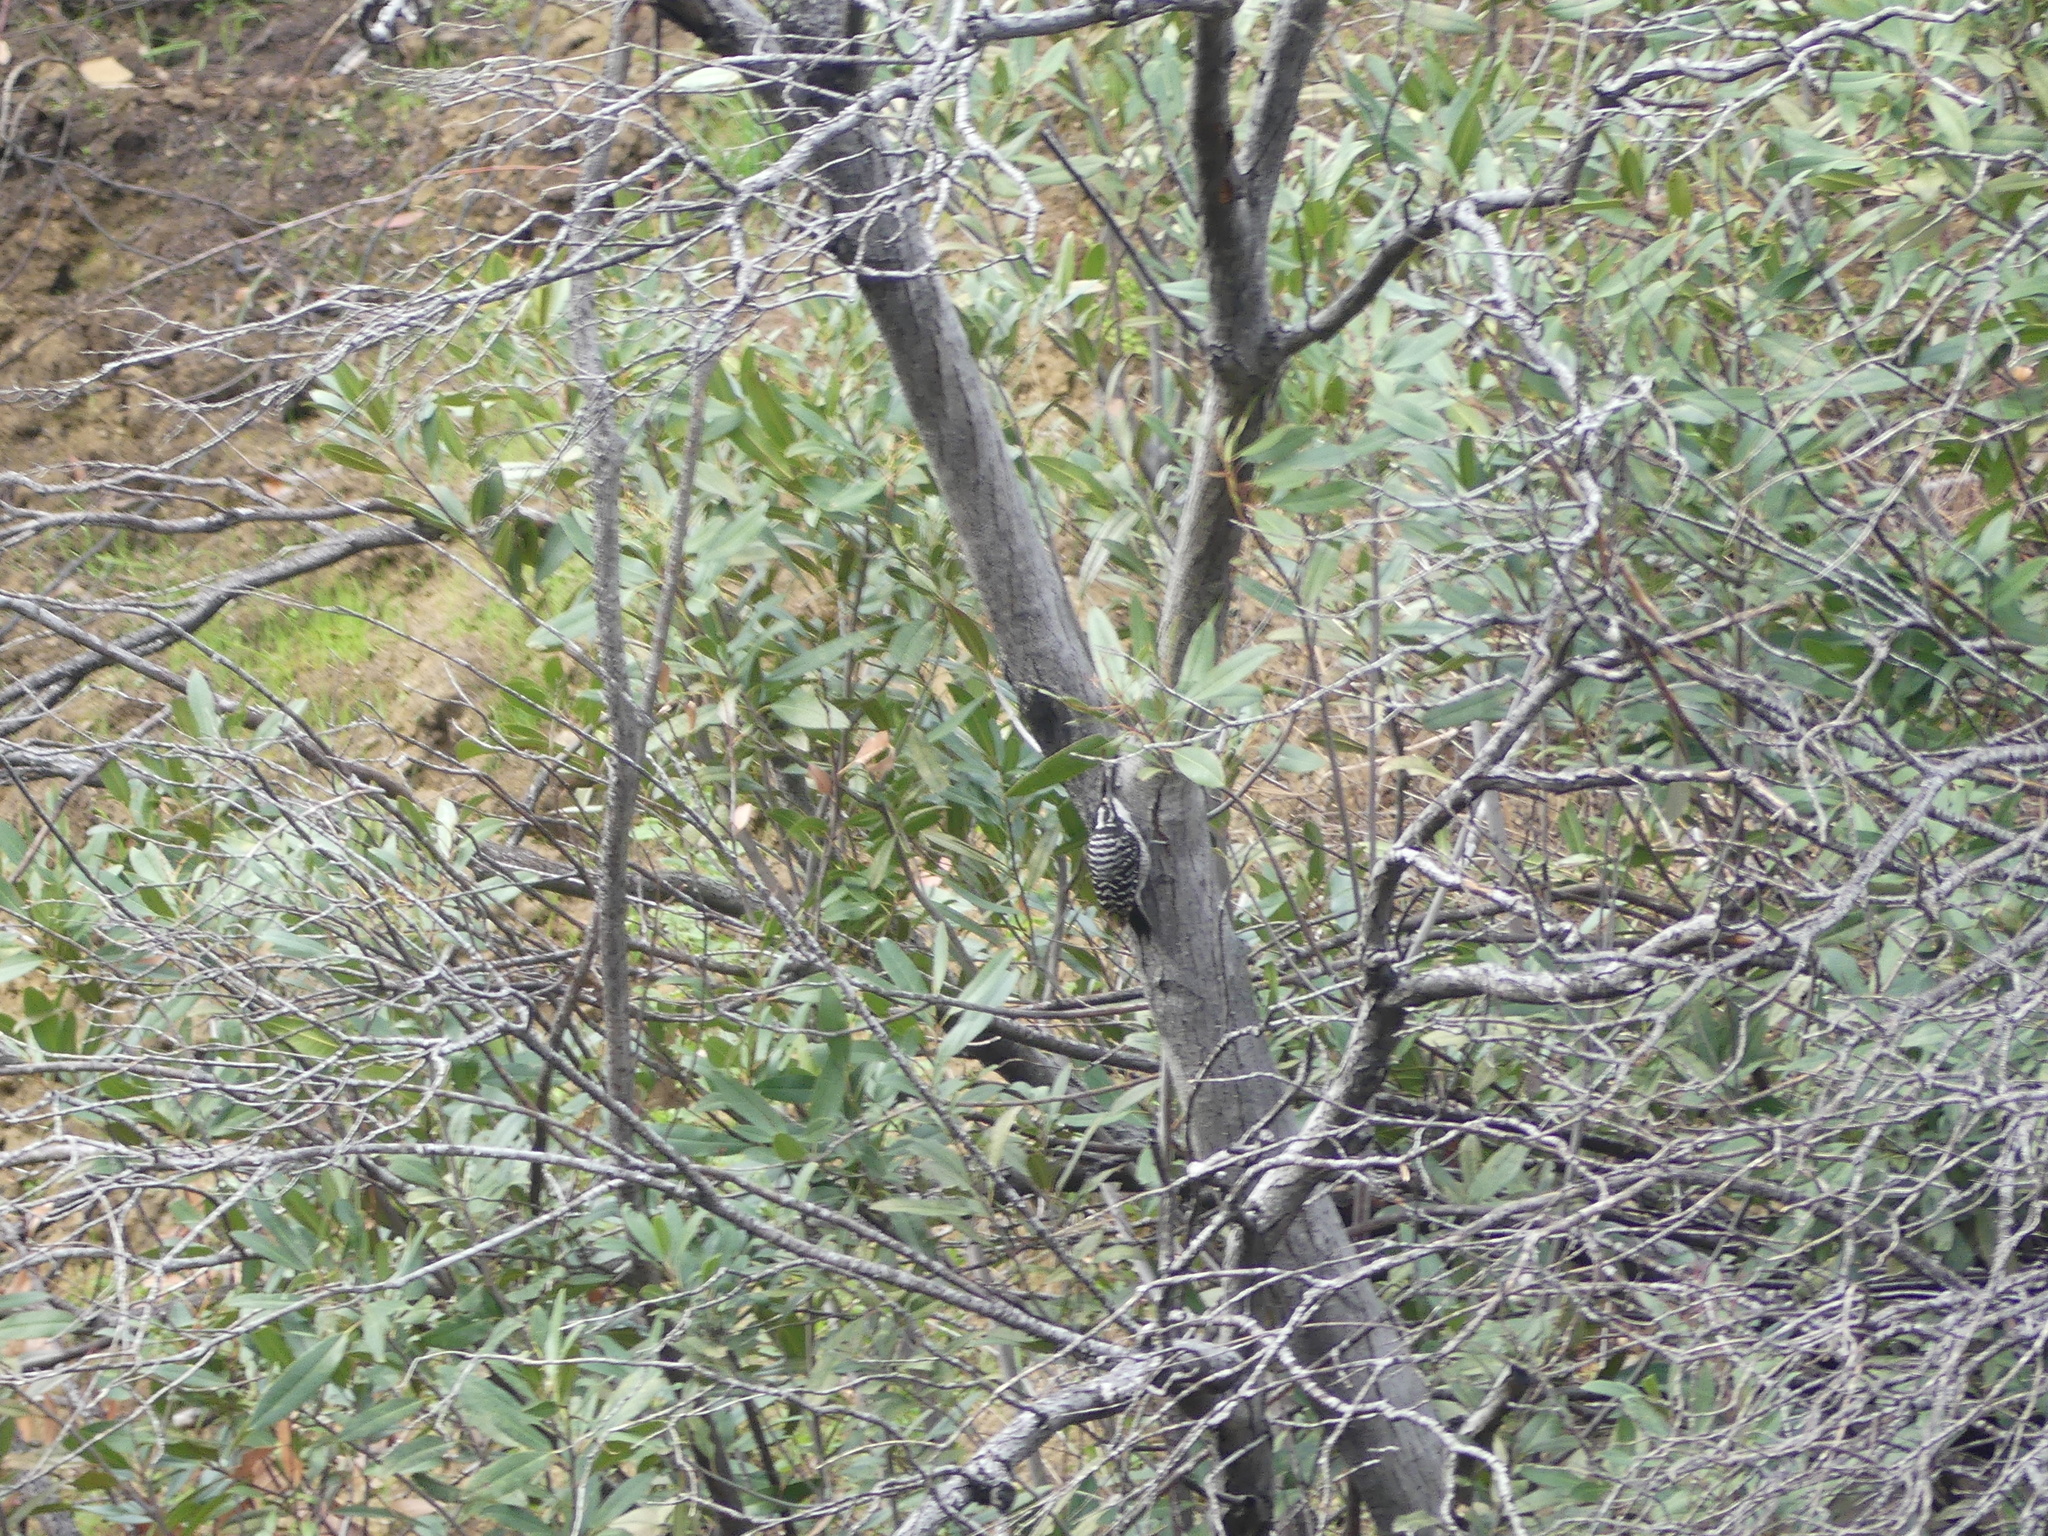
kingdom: Animalia
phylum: Chordata
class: Aves
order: Piciformes
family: Picidae
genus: Dryobates
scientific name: Dryobates nuttallii
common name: Nuttall's woodpecker
